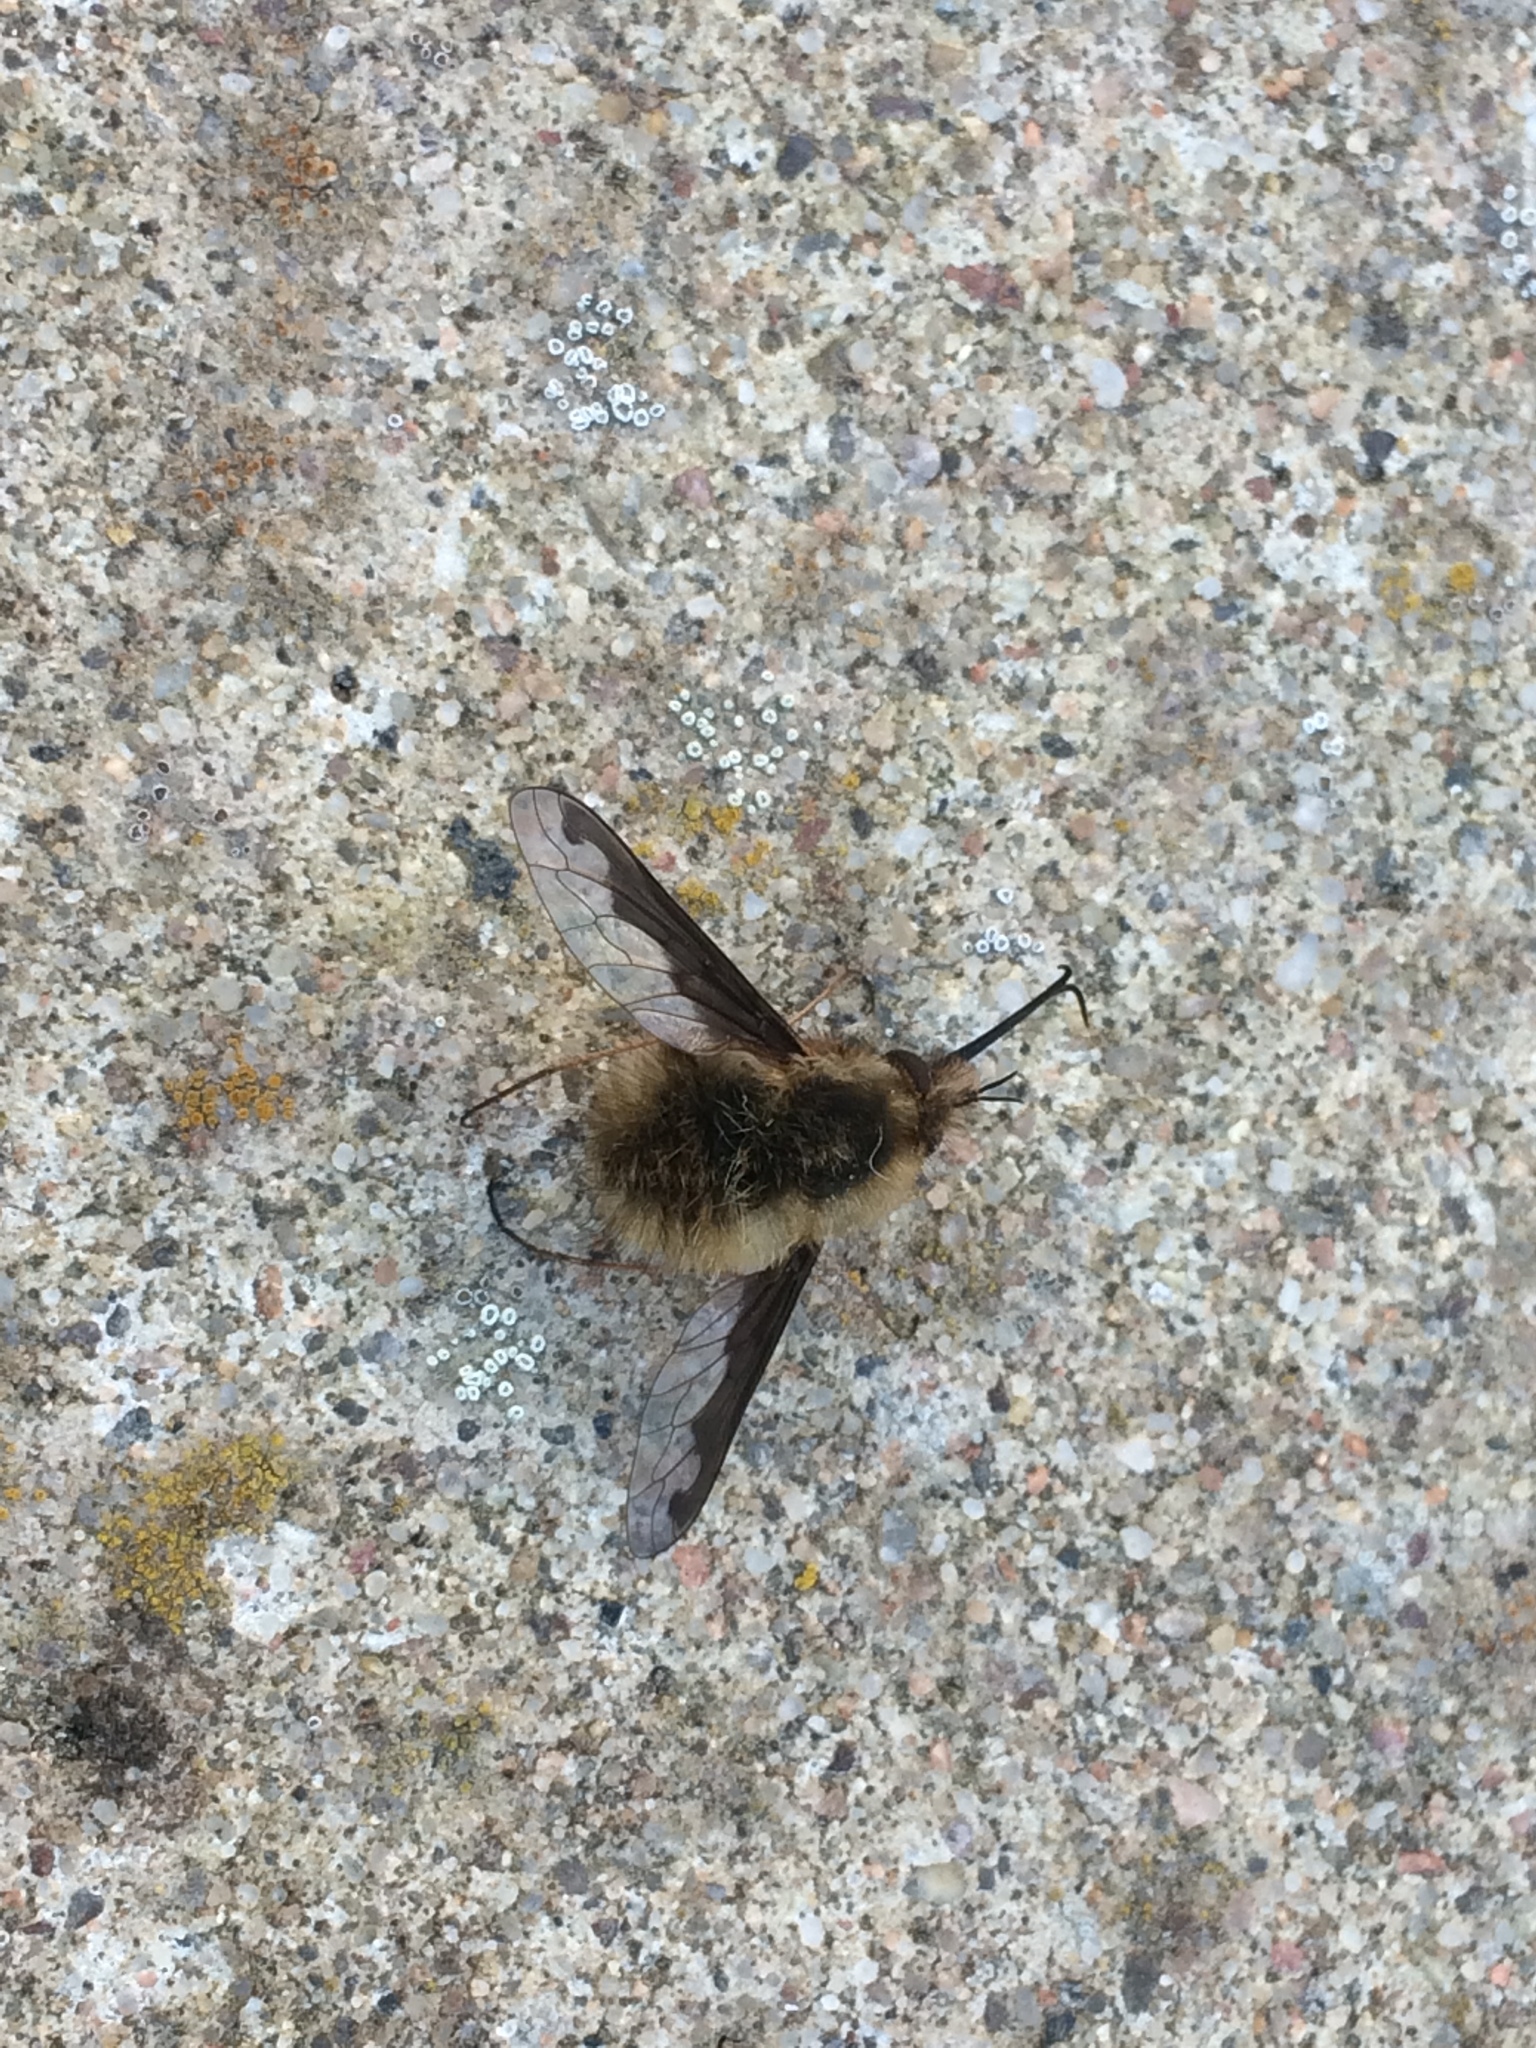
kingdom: Animalia
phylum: Arthropoda
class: Insecta
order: Diptera
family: Bombyliidae
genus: Bombylius
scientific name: Bombylius major
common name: Bee fly
